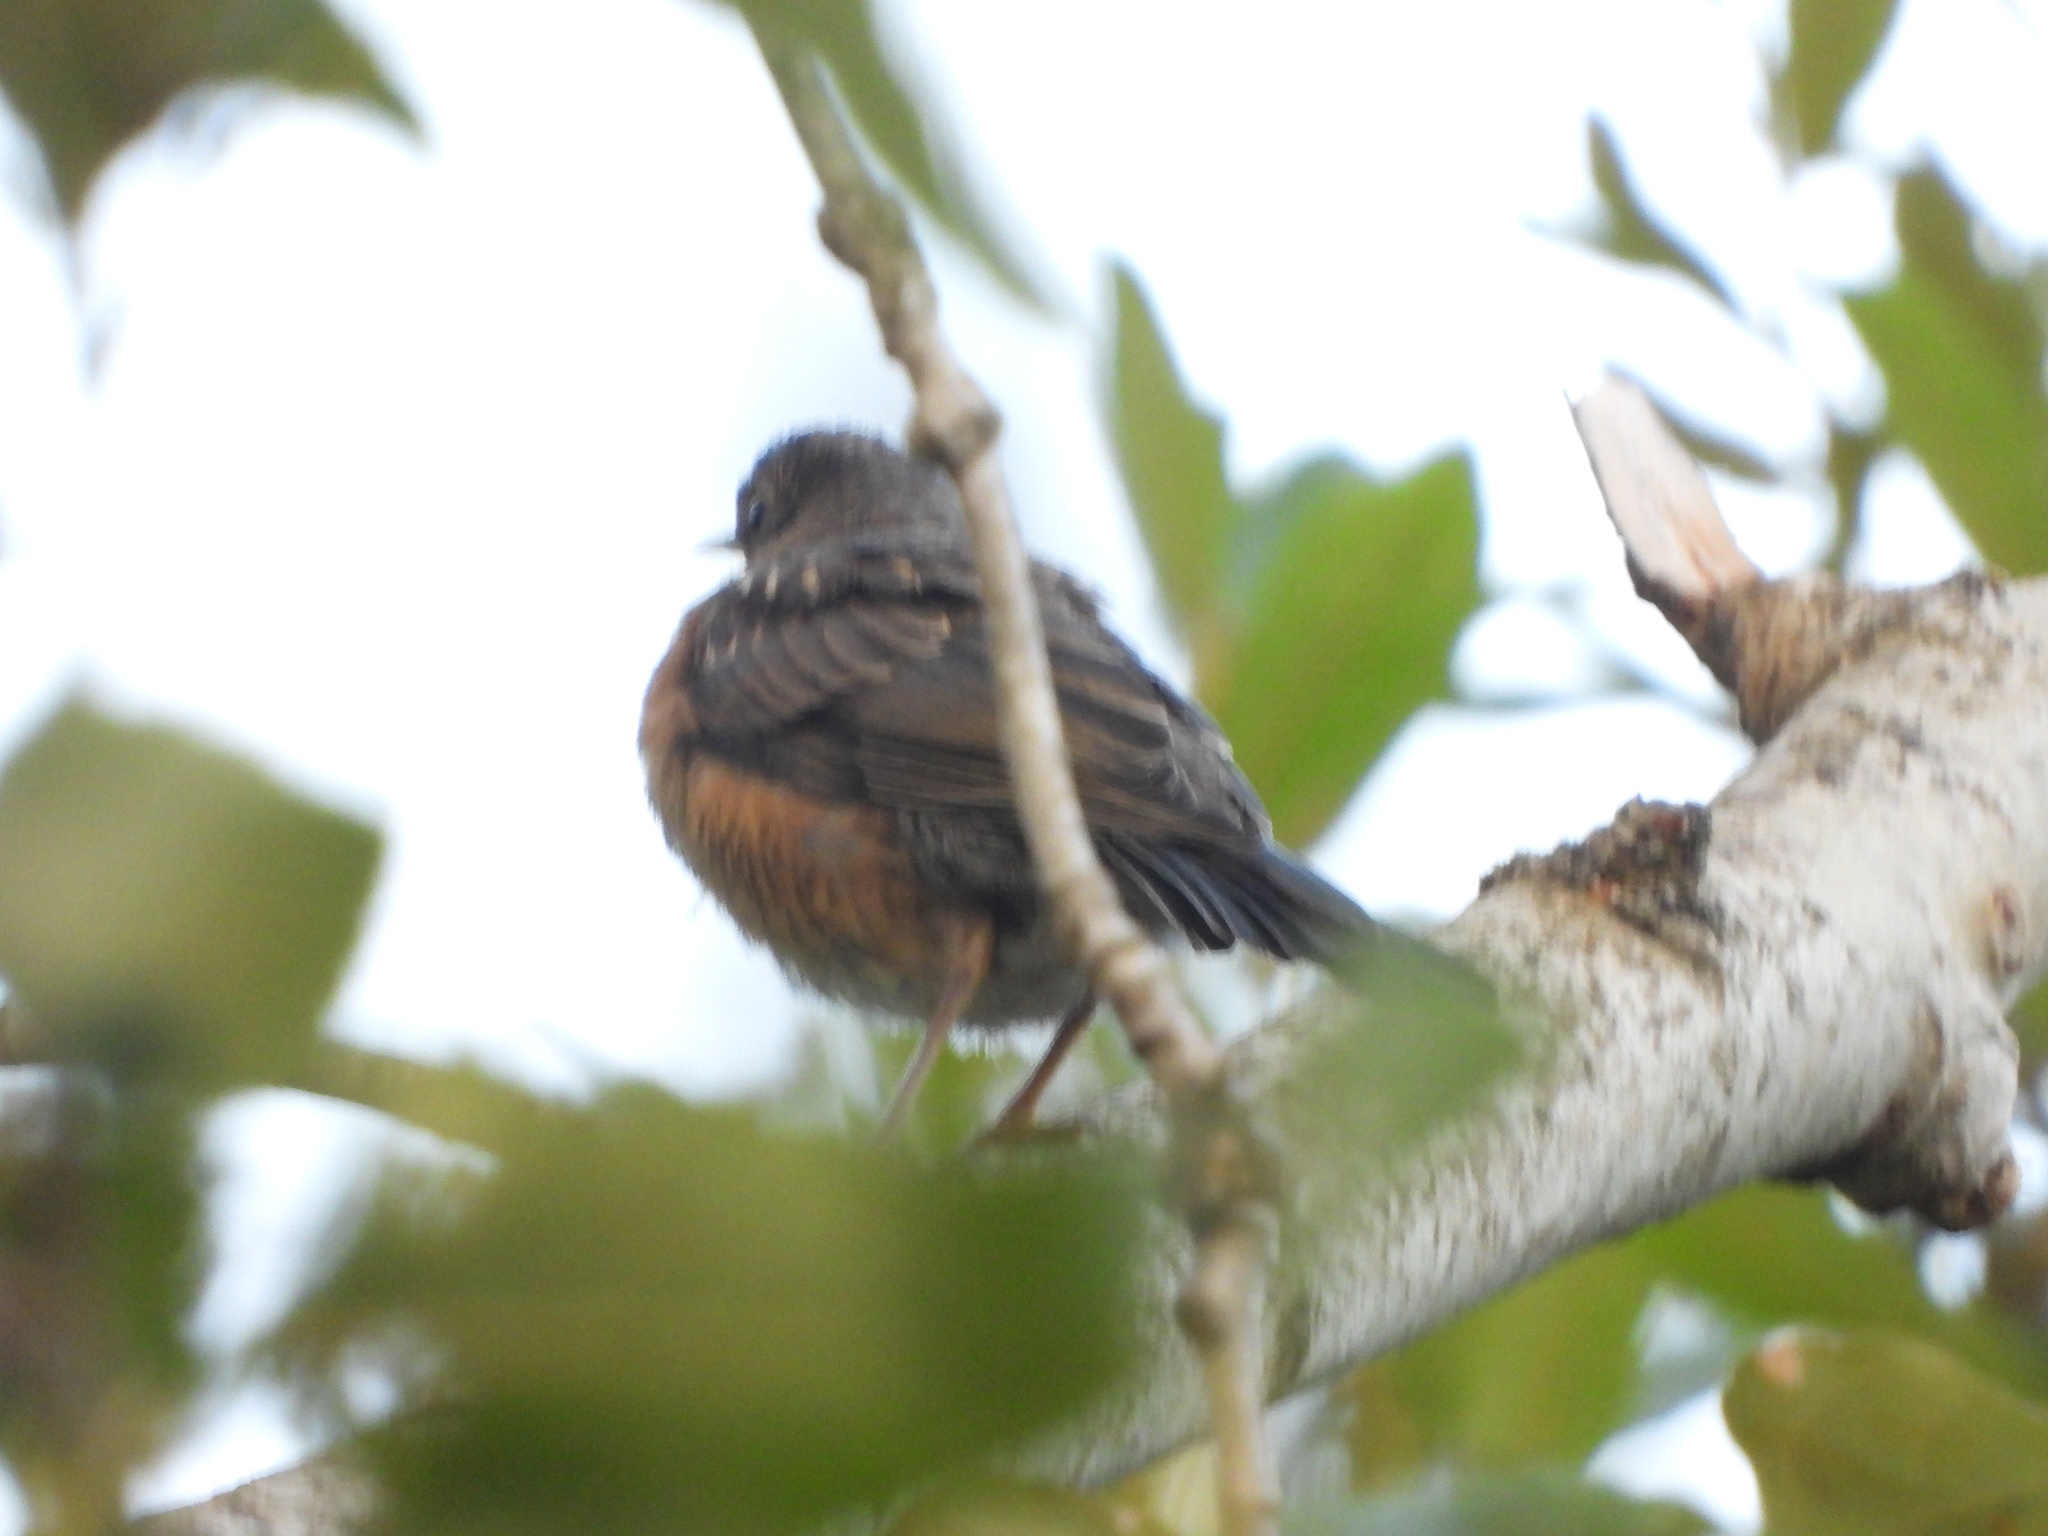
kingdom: Animalia
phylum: Chordata
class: Aves
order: Passeriformes
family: Turdidae
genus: Turdus
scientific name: Turdus migratorius
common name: American robin
